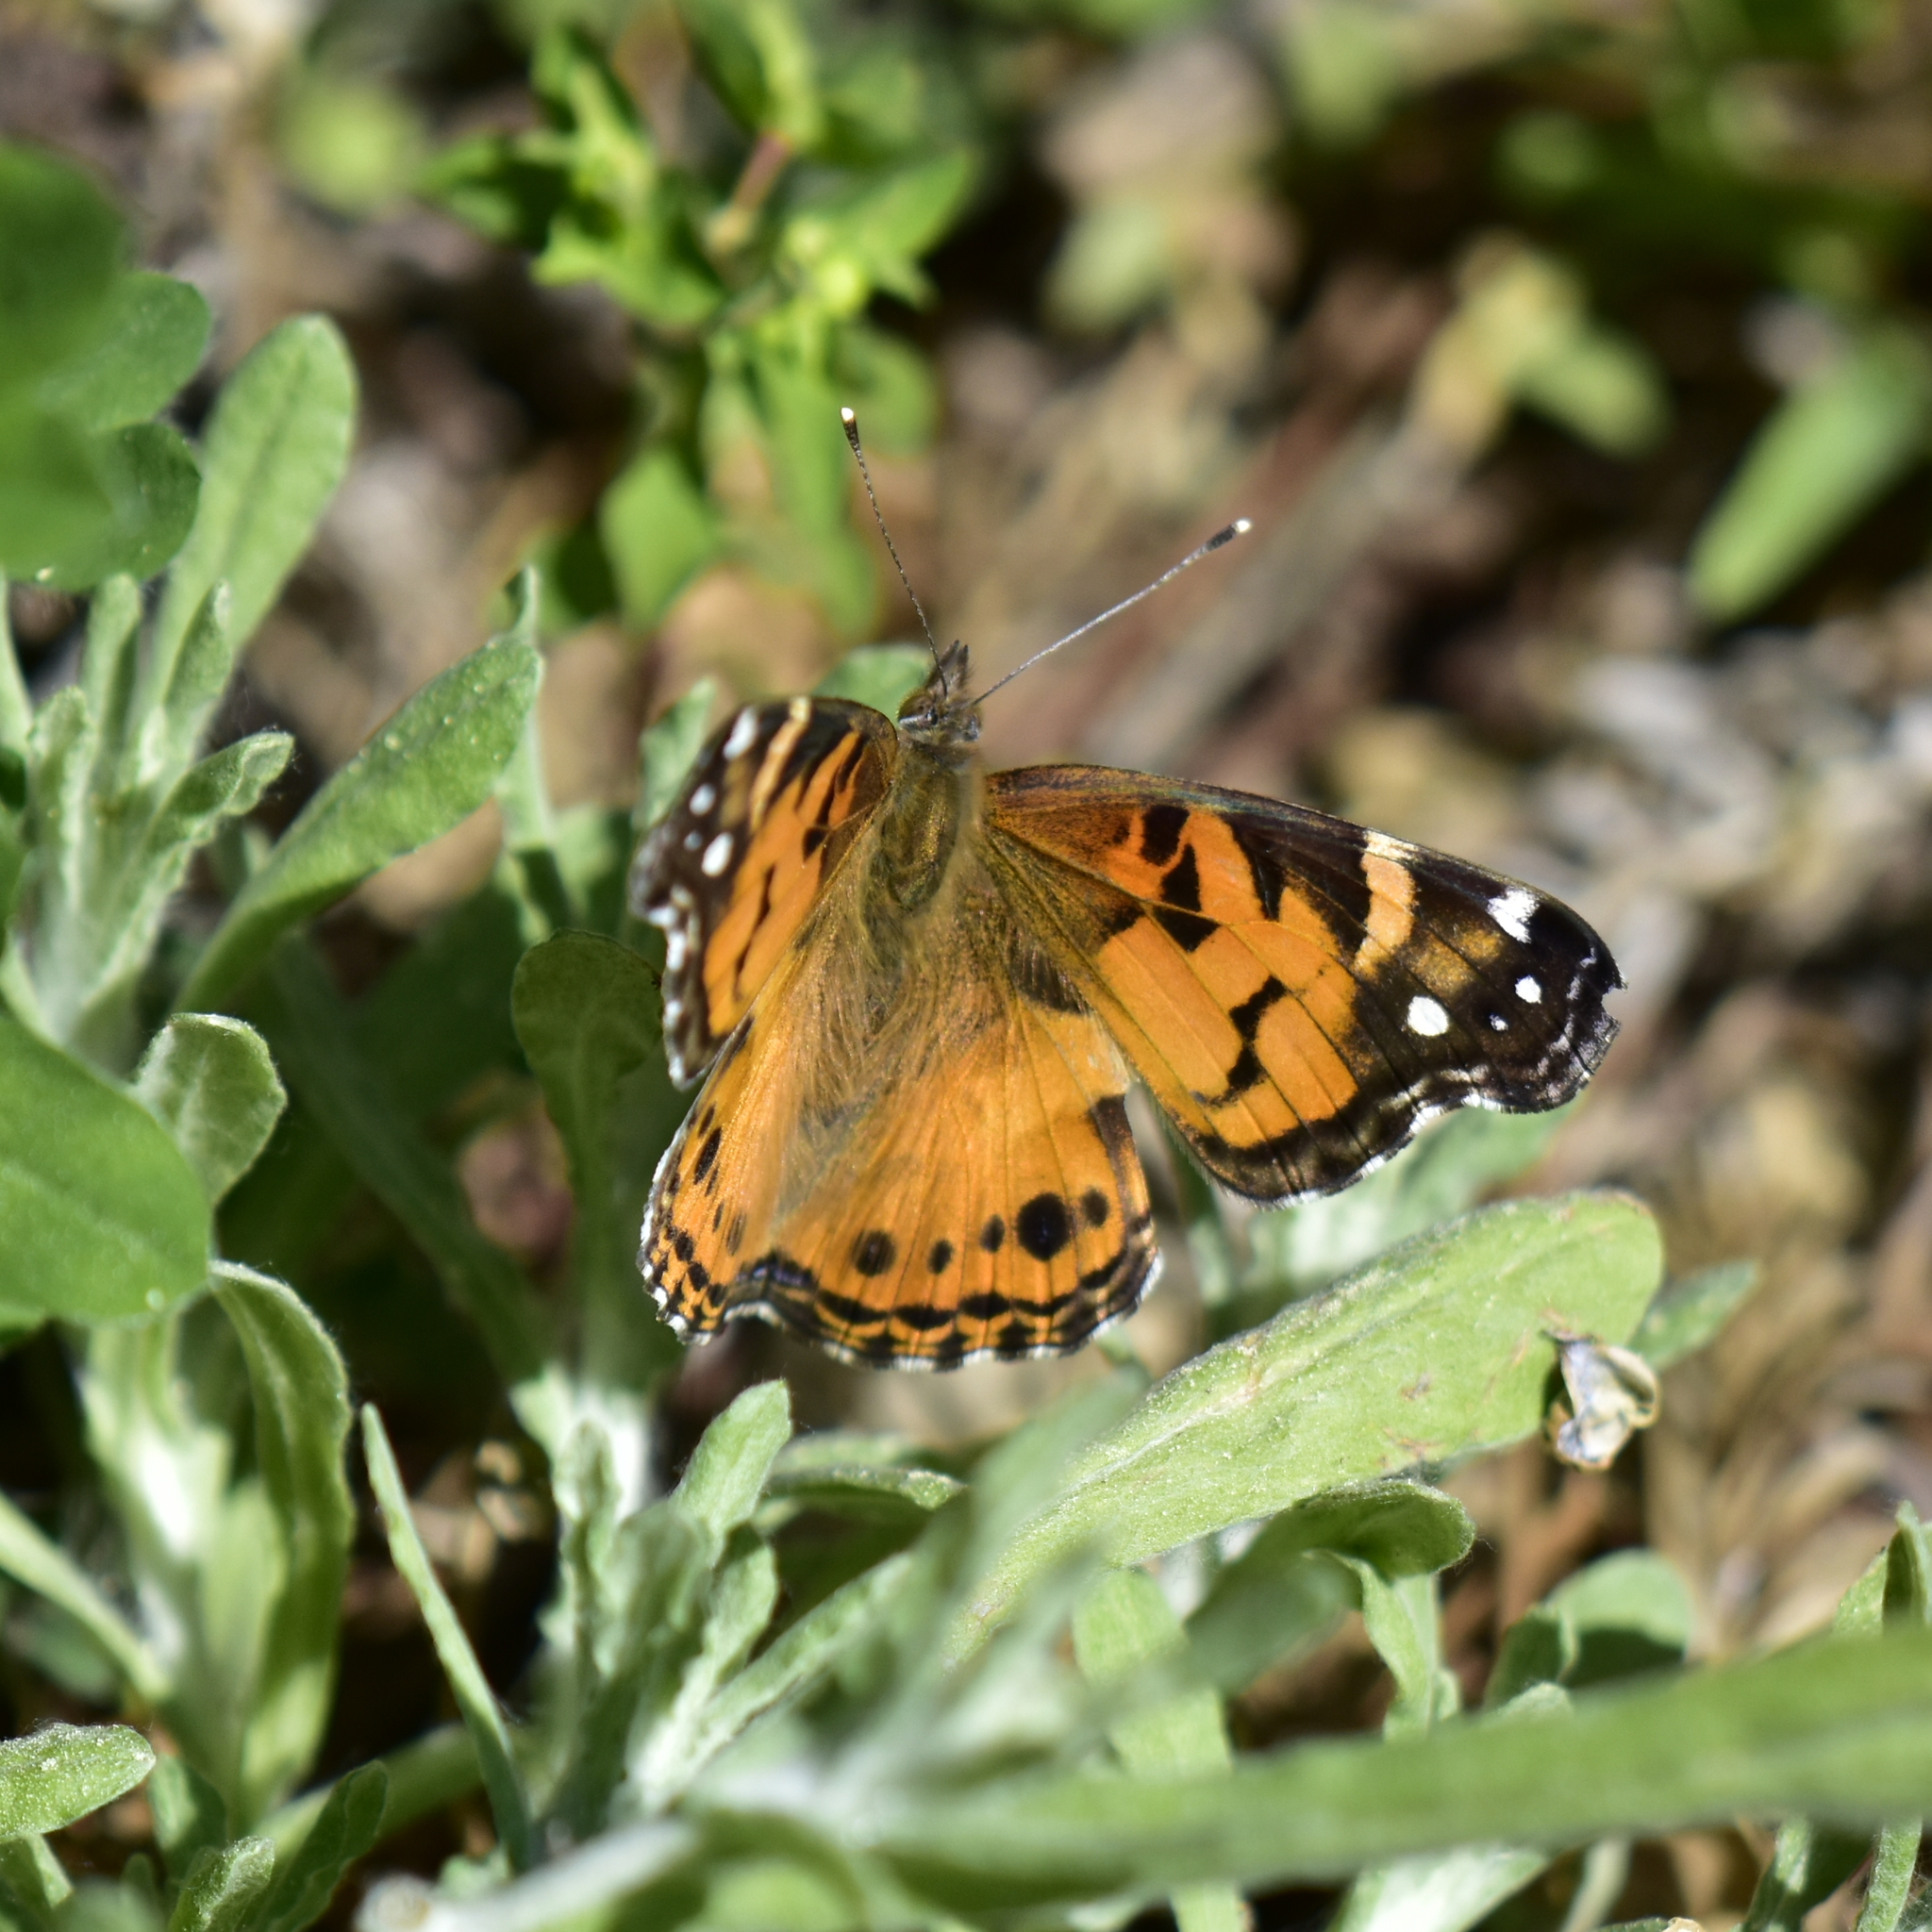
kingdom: Animalia
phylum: Arthropoda
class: Insecta
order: Lepidoptera
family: Nymphalidae
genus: Vanessa
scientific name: Vanessa virginiensis
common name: American lady
